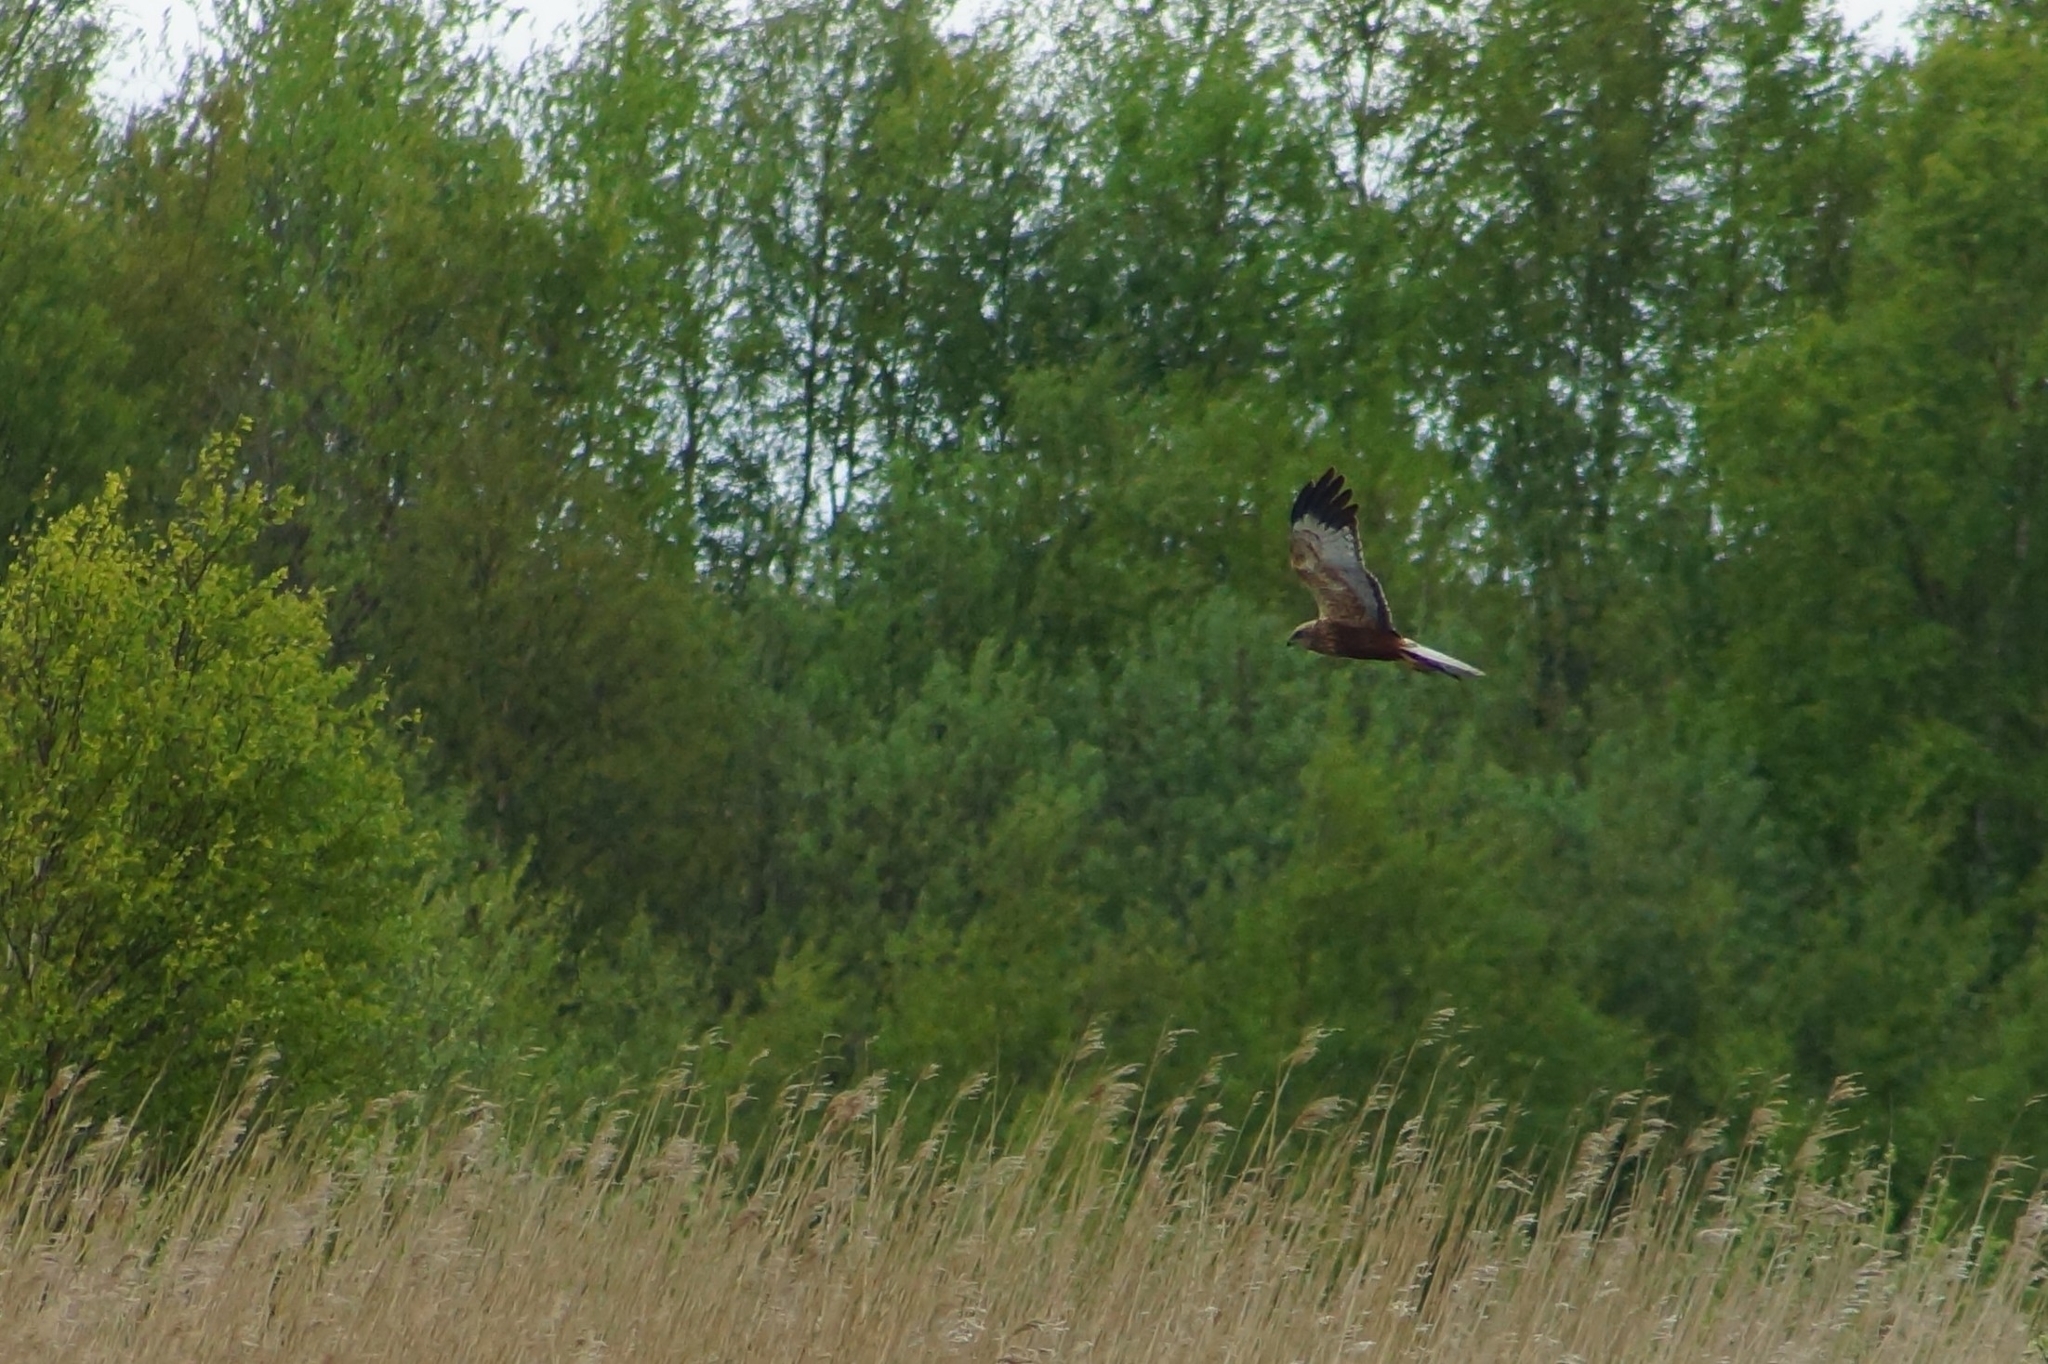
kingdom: Animalia
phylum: Chordata
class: Aves
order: Accipitriformes
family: Accipitridae
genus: Circus
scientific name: Circus aeruginosus
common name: Western marsh harrier
